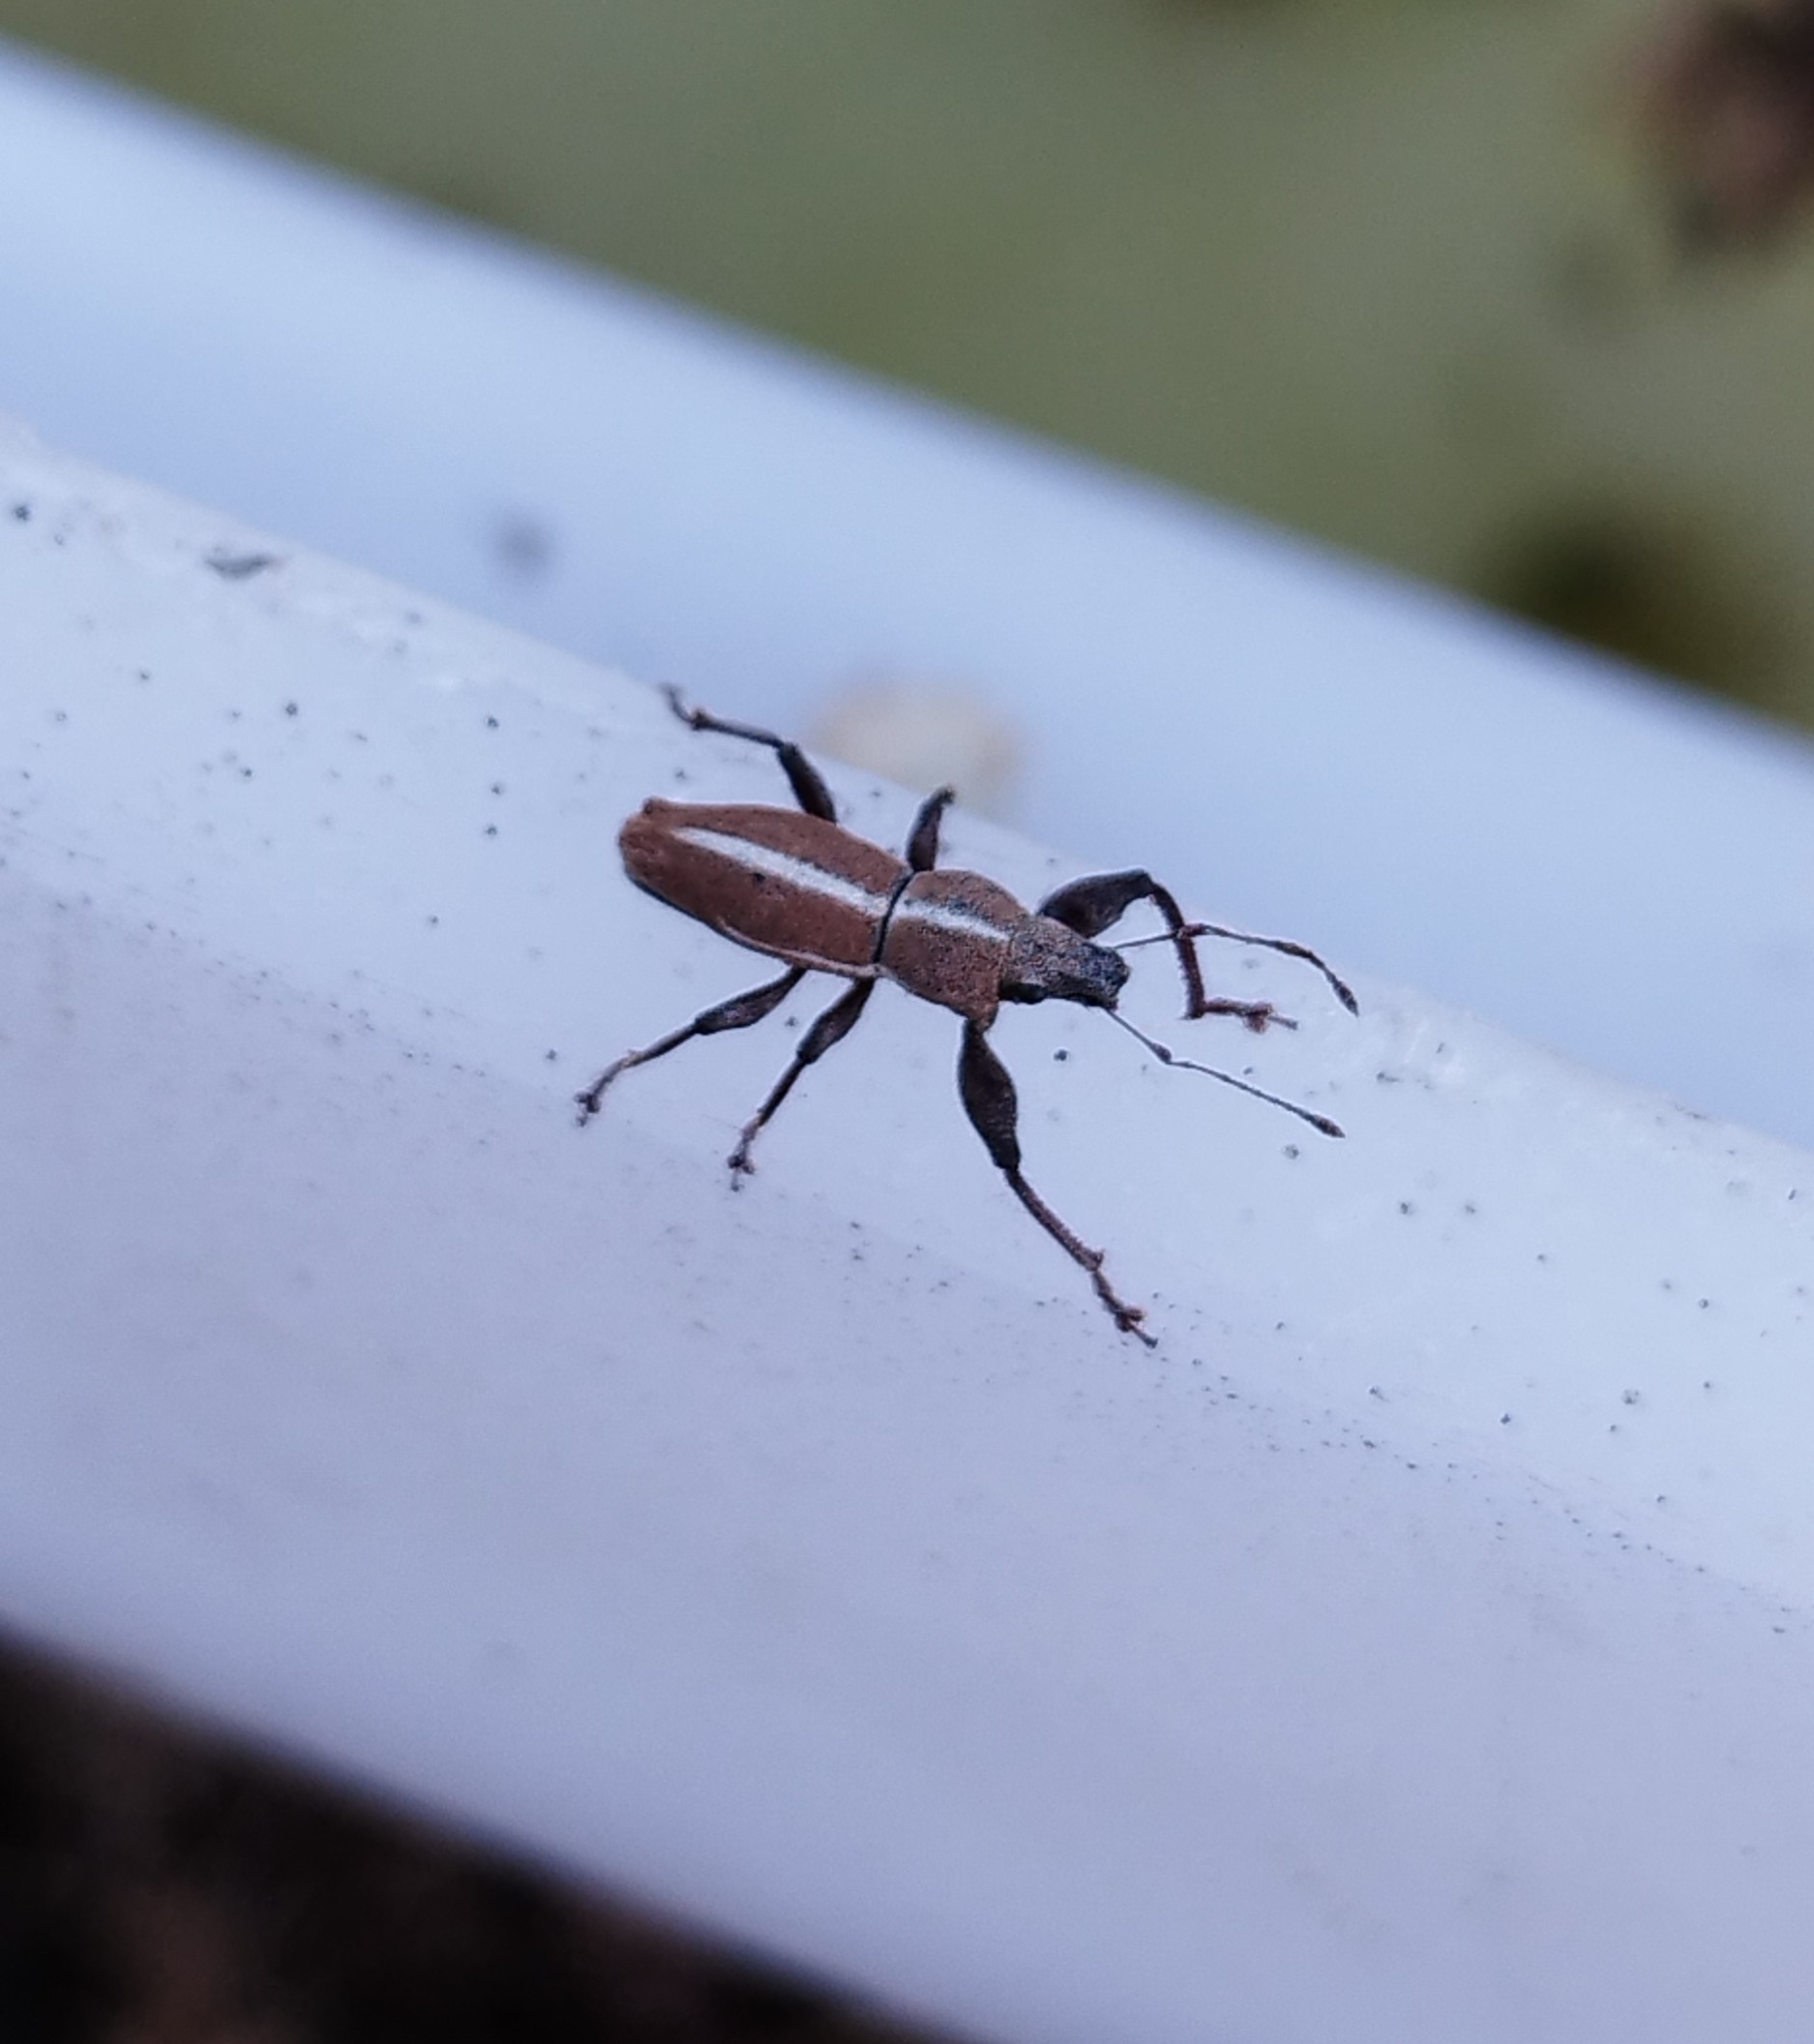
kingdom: Animalia
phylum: Arthropoda
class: Insecta
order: Coleoptera
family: Curculionidae
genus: Naupactus
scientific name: Naupactus dissimulator
